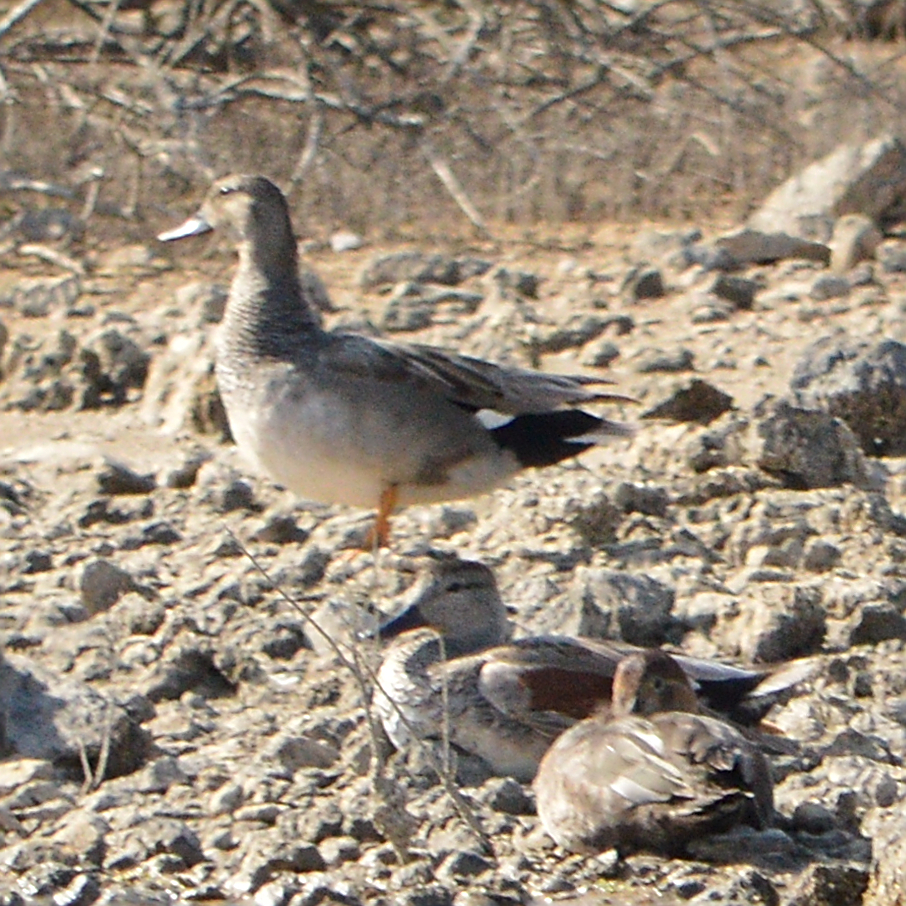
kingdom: Animalia
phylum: Chordata
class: Aves
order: Anseriformes
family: Anatidae
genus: Mareca
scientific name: Mareca strepera
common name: Gadwall
